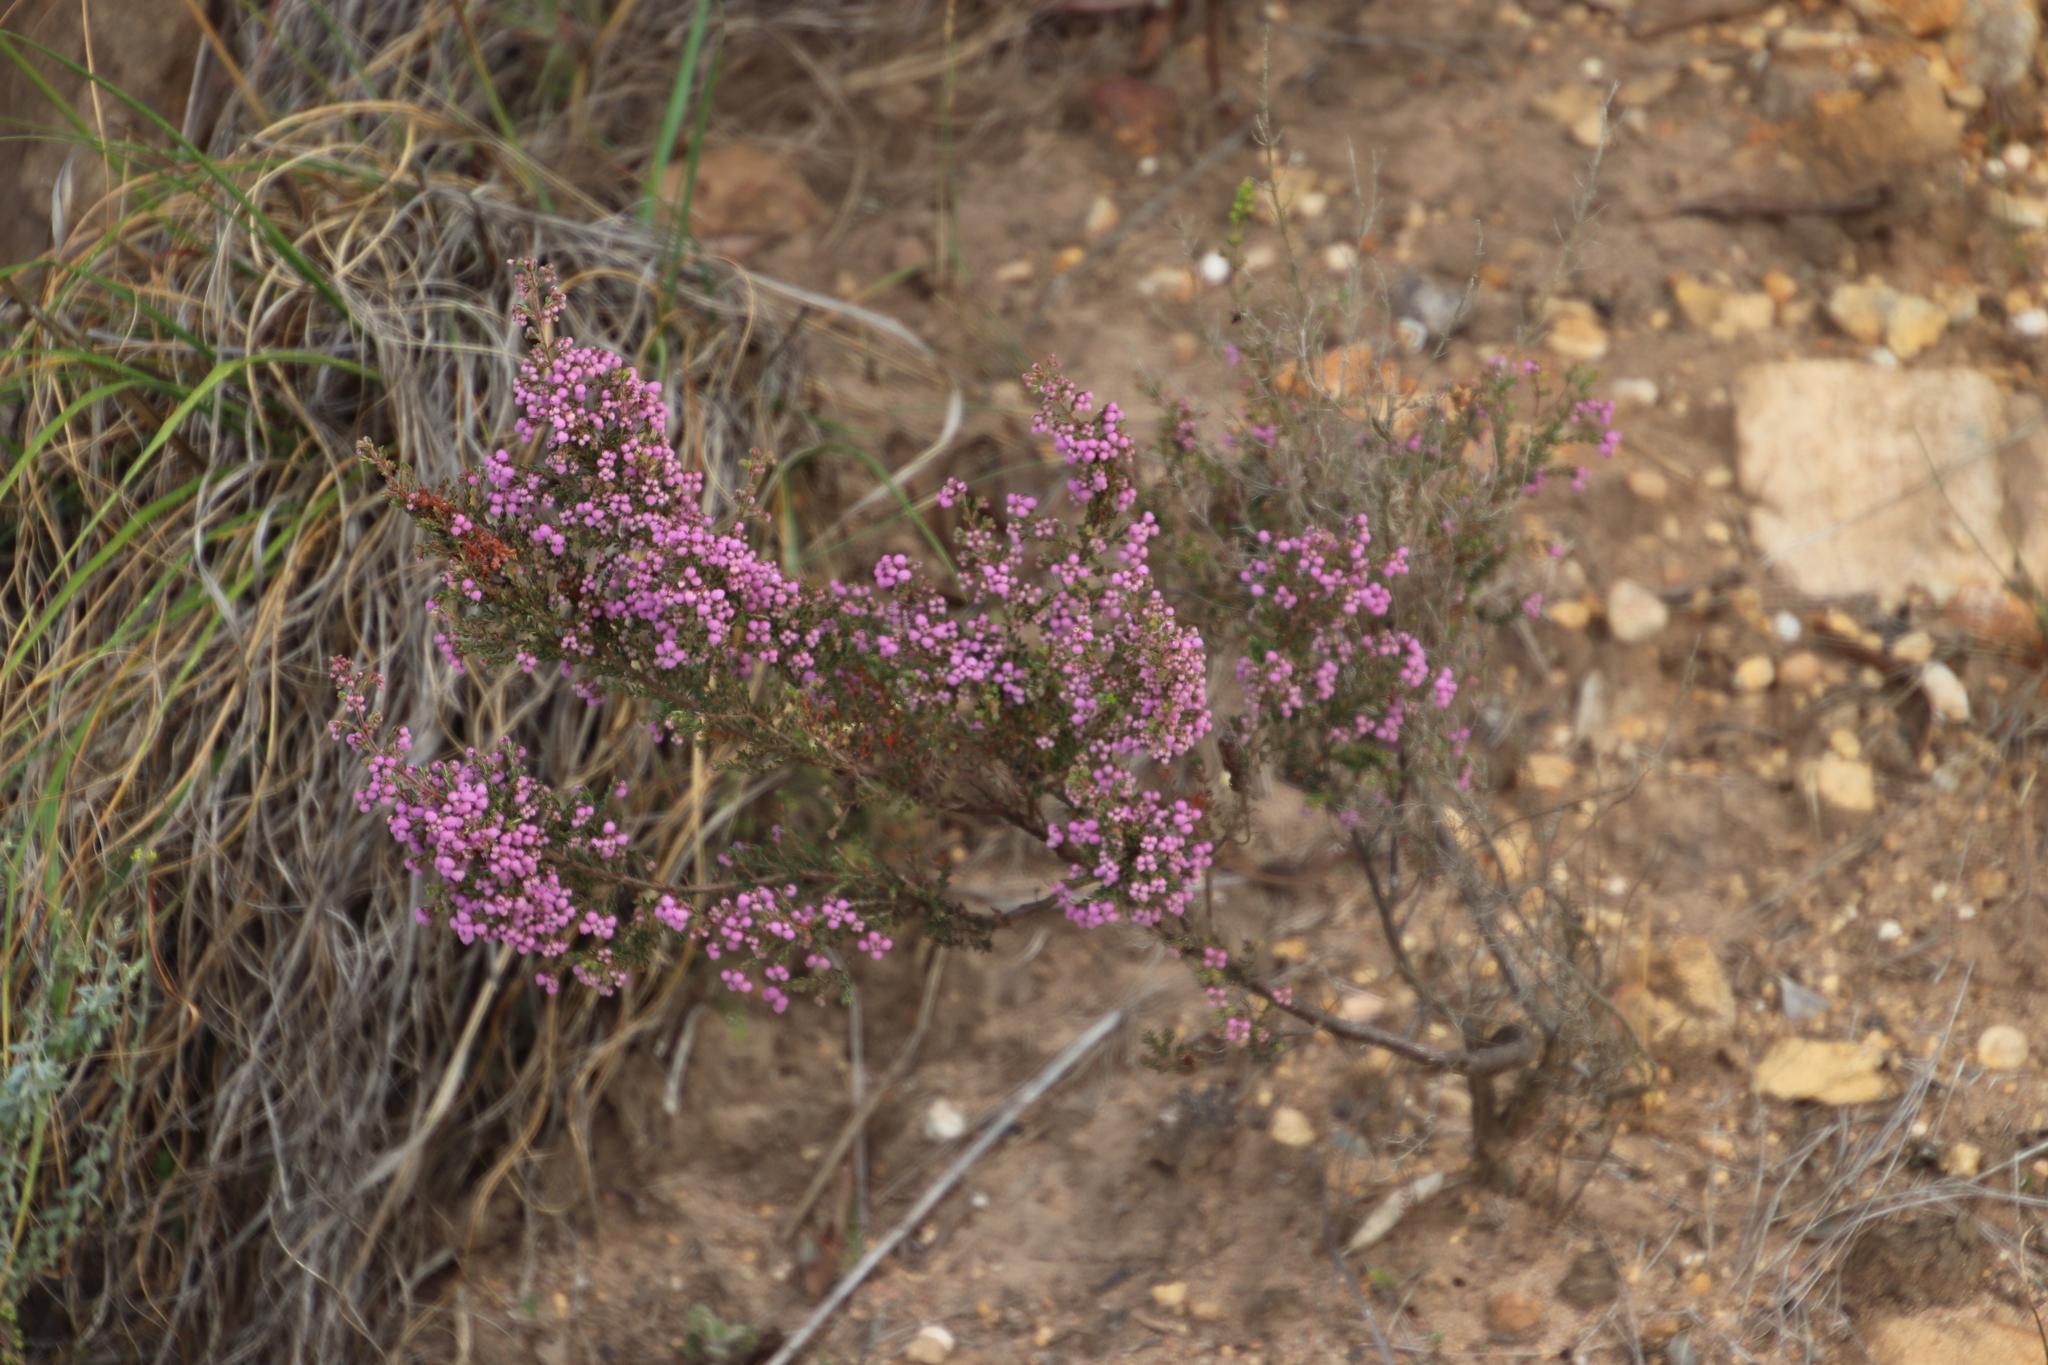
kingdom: Plantae
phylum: Tracheophyta
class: Magnoliopsida
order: Ericales
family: Ericaceae
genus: Erica
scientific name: Erica hirtiflora
